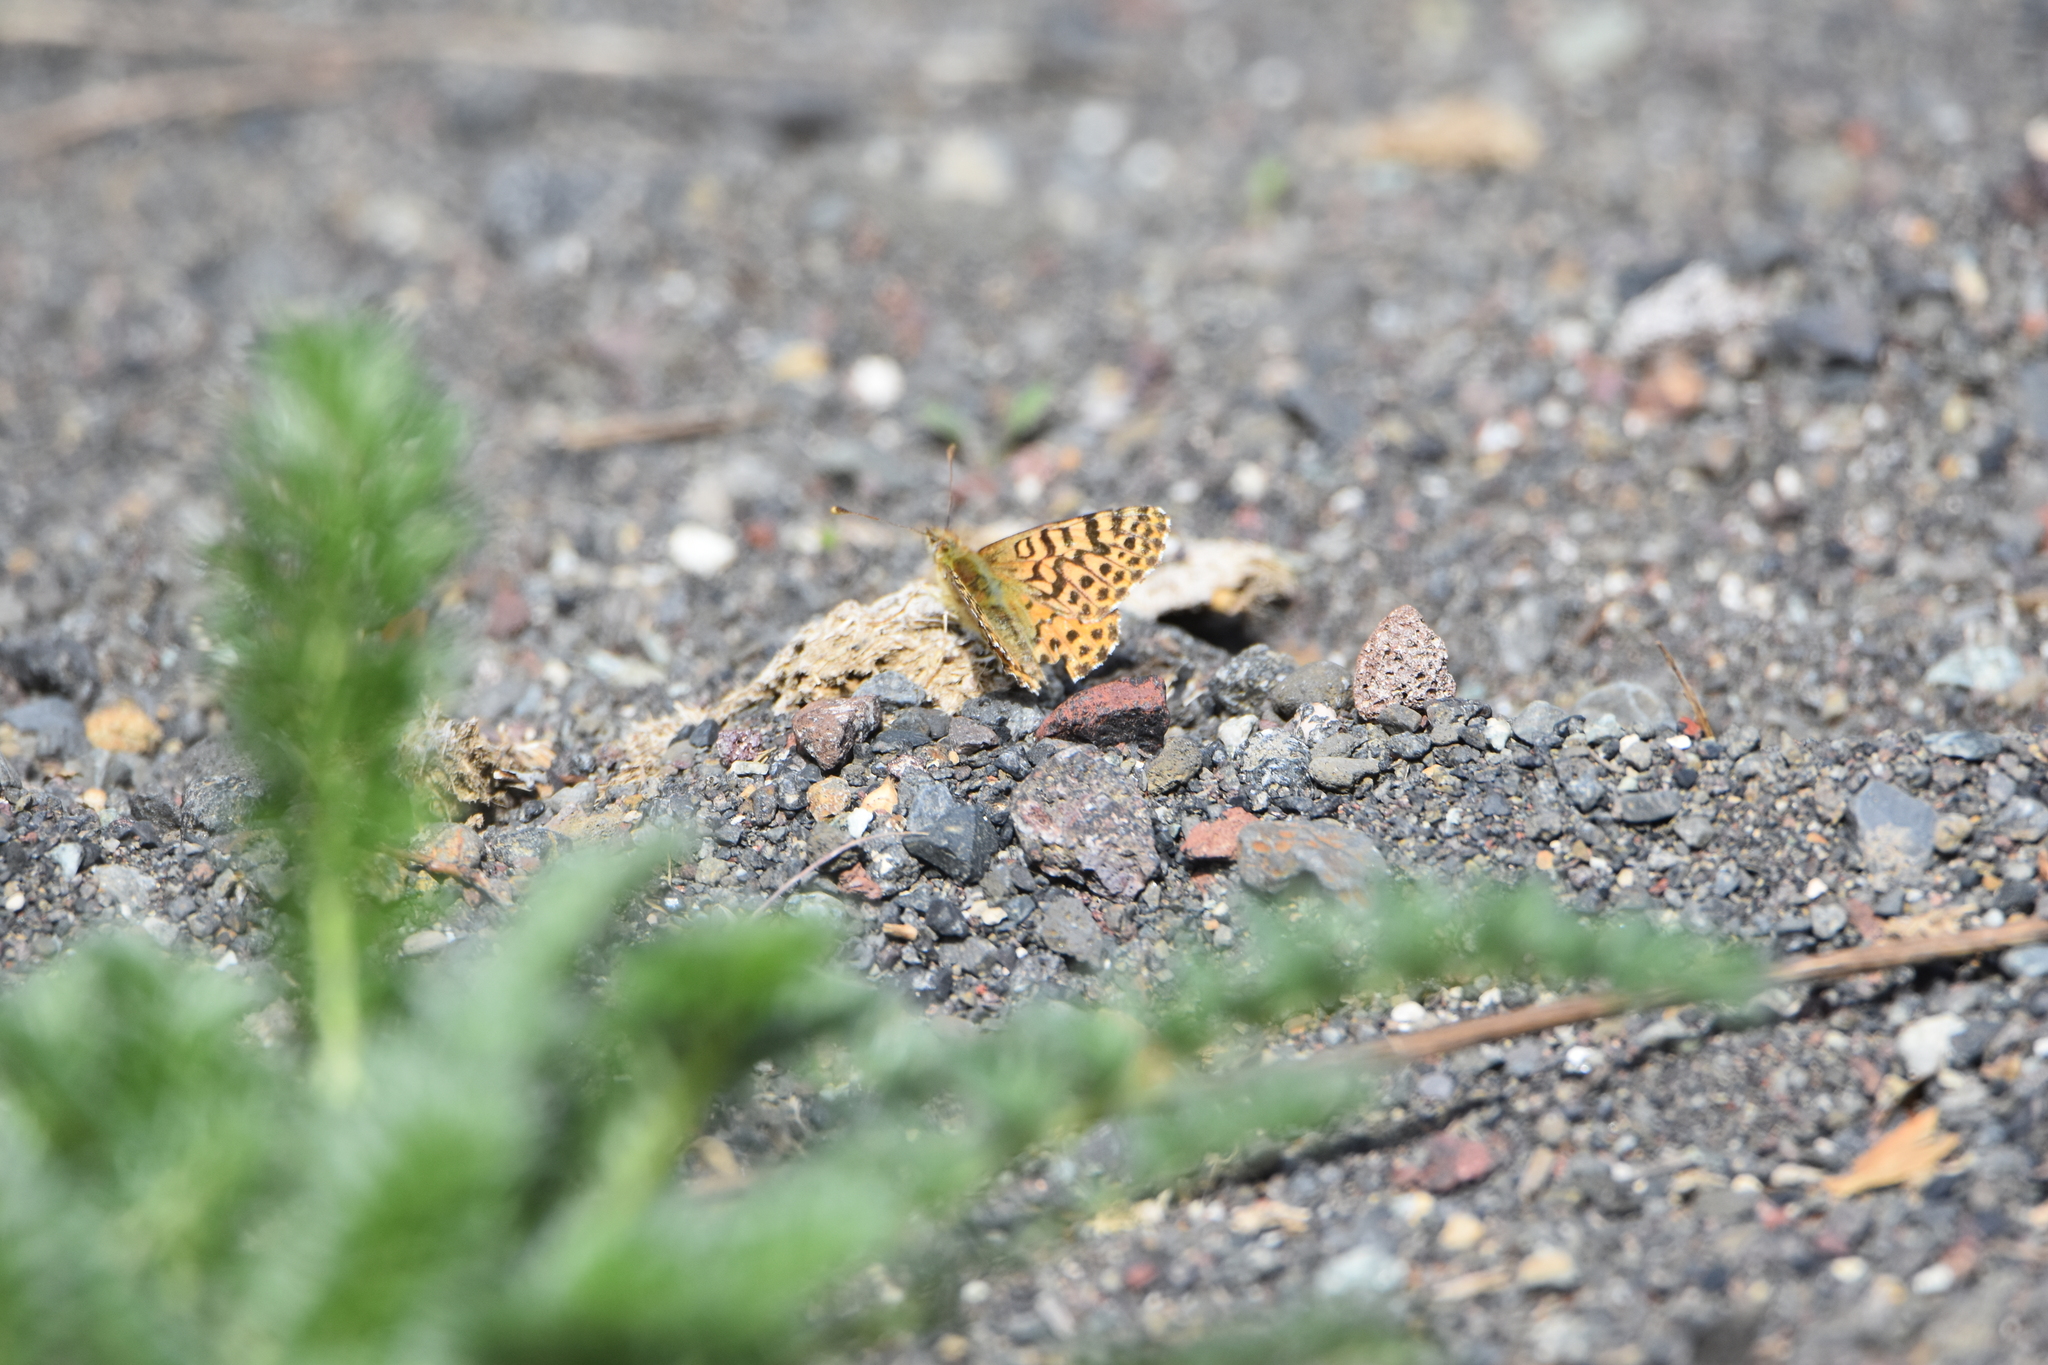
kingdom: Animalia
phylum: Arthropoda
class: Insecta
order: Lepidoptera
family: Nymphalidae
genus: Issoria
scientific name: Issoria Yramea lathonoides
